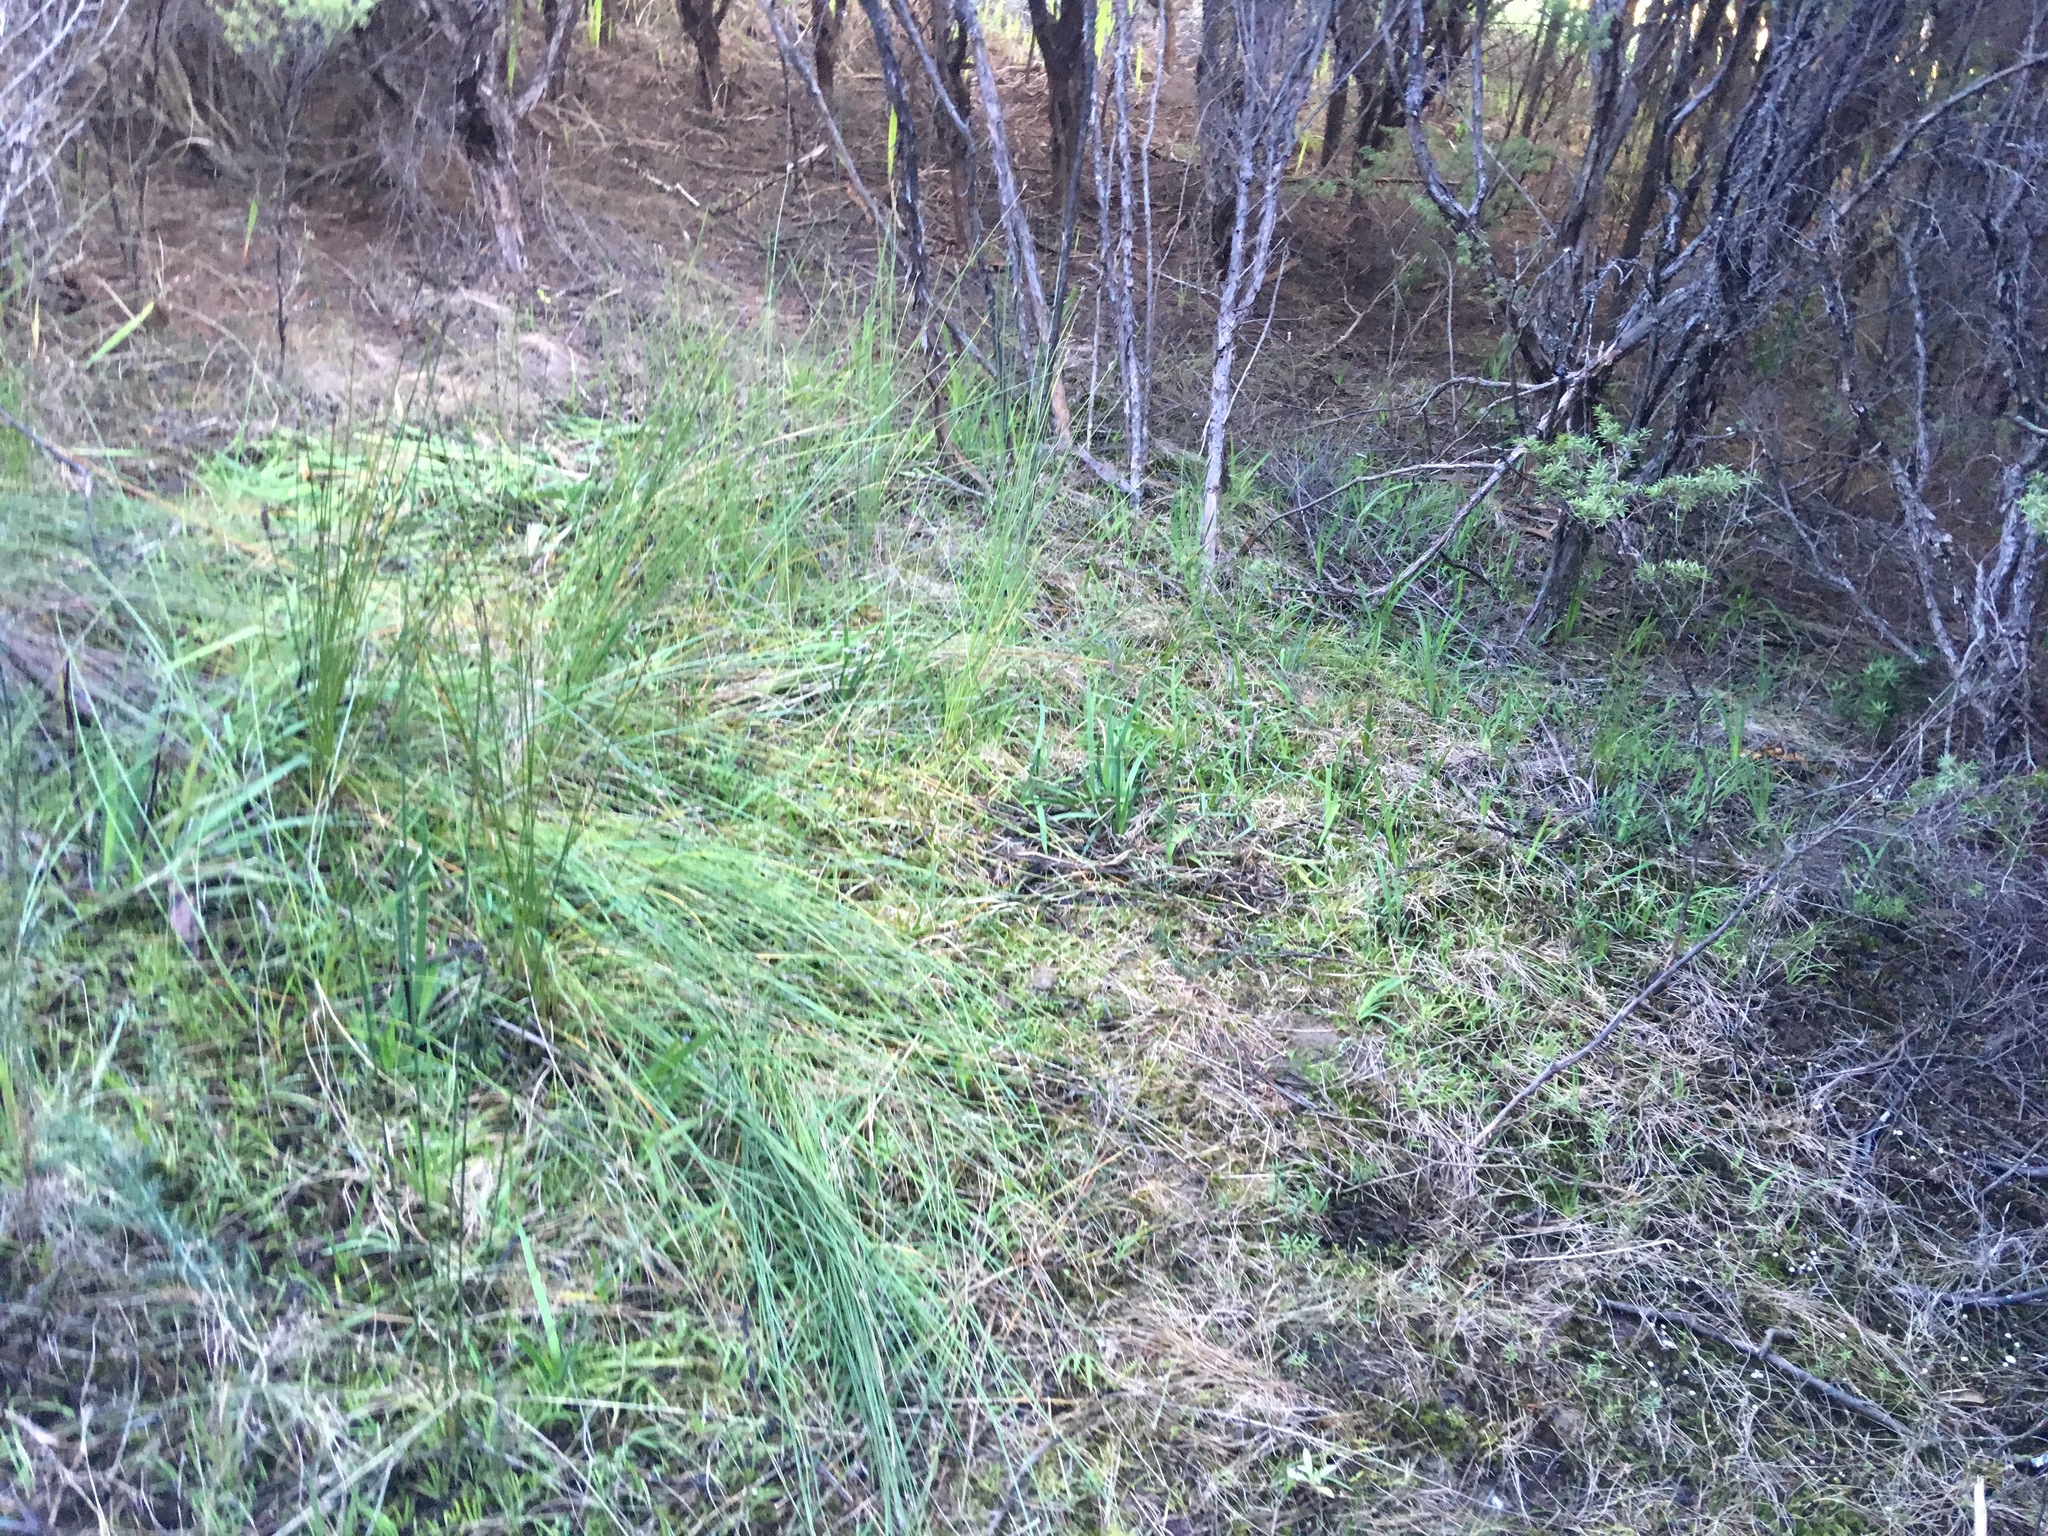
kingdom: Plantae
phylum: Tracheophyta
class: Liliopsida
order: Poales
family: Cyperaceae
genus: Schoenus
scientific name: Schoenus tendo
